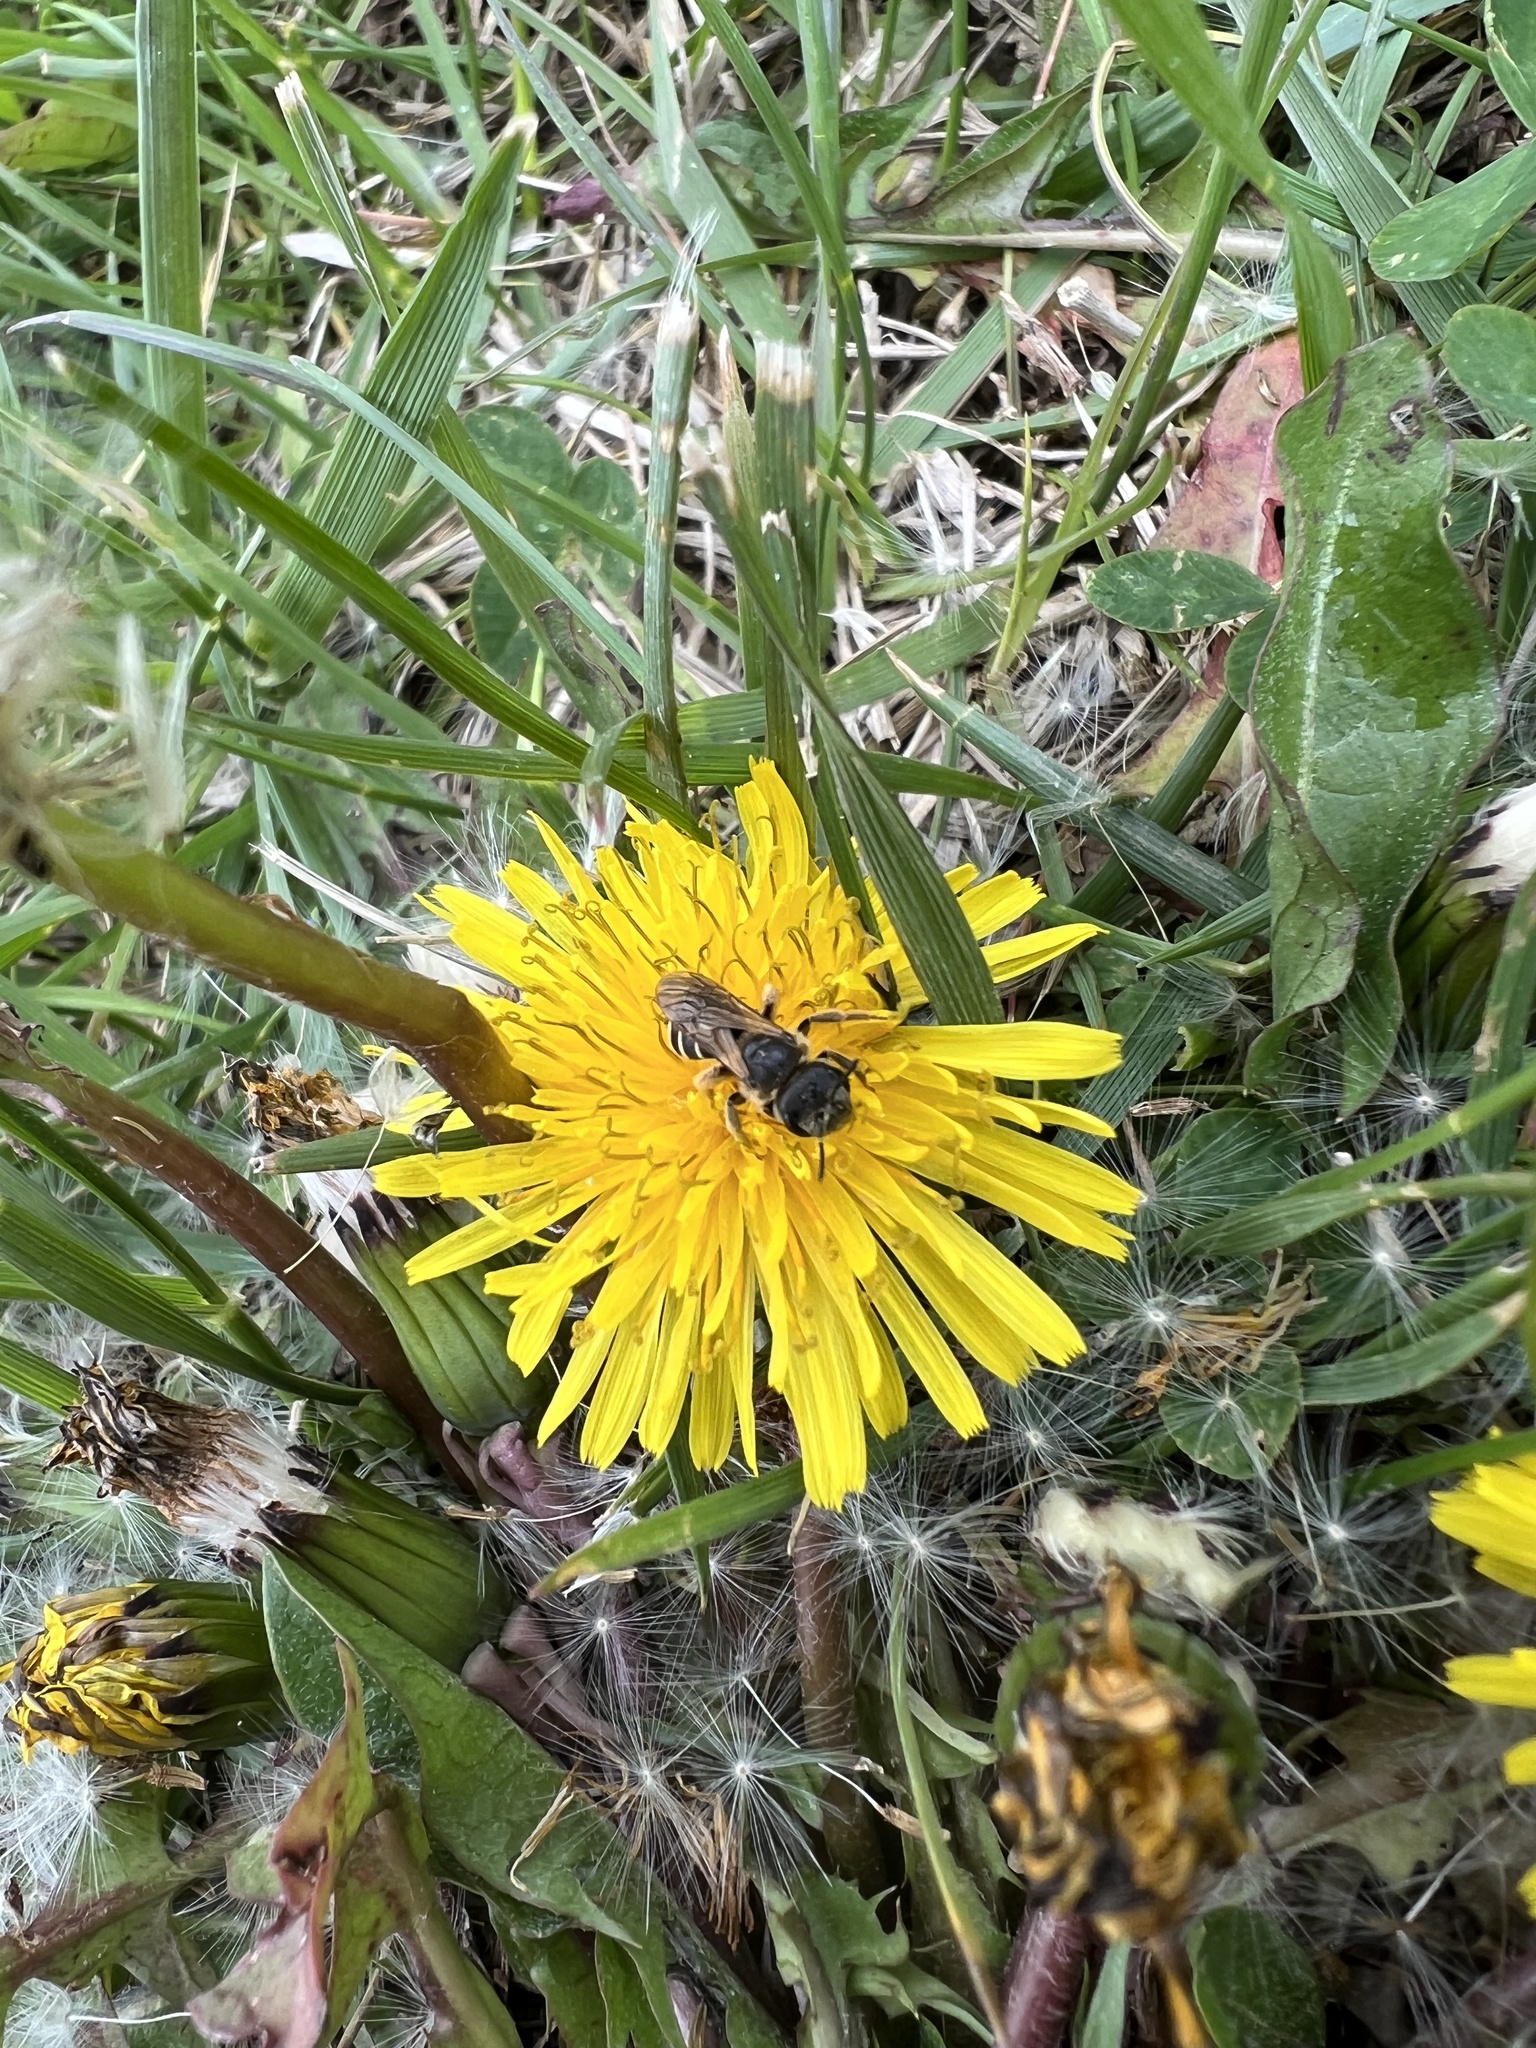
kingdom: Animalia
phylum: Arthropoda
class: Insecta
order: Hymenoptera
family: Halictidae
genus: Halictus
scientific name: Halictus ligatus
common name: Ligated furrow bee
